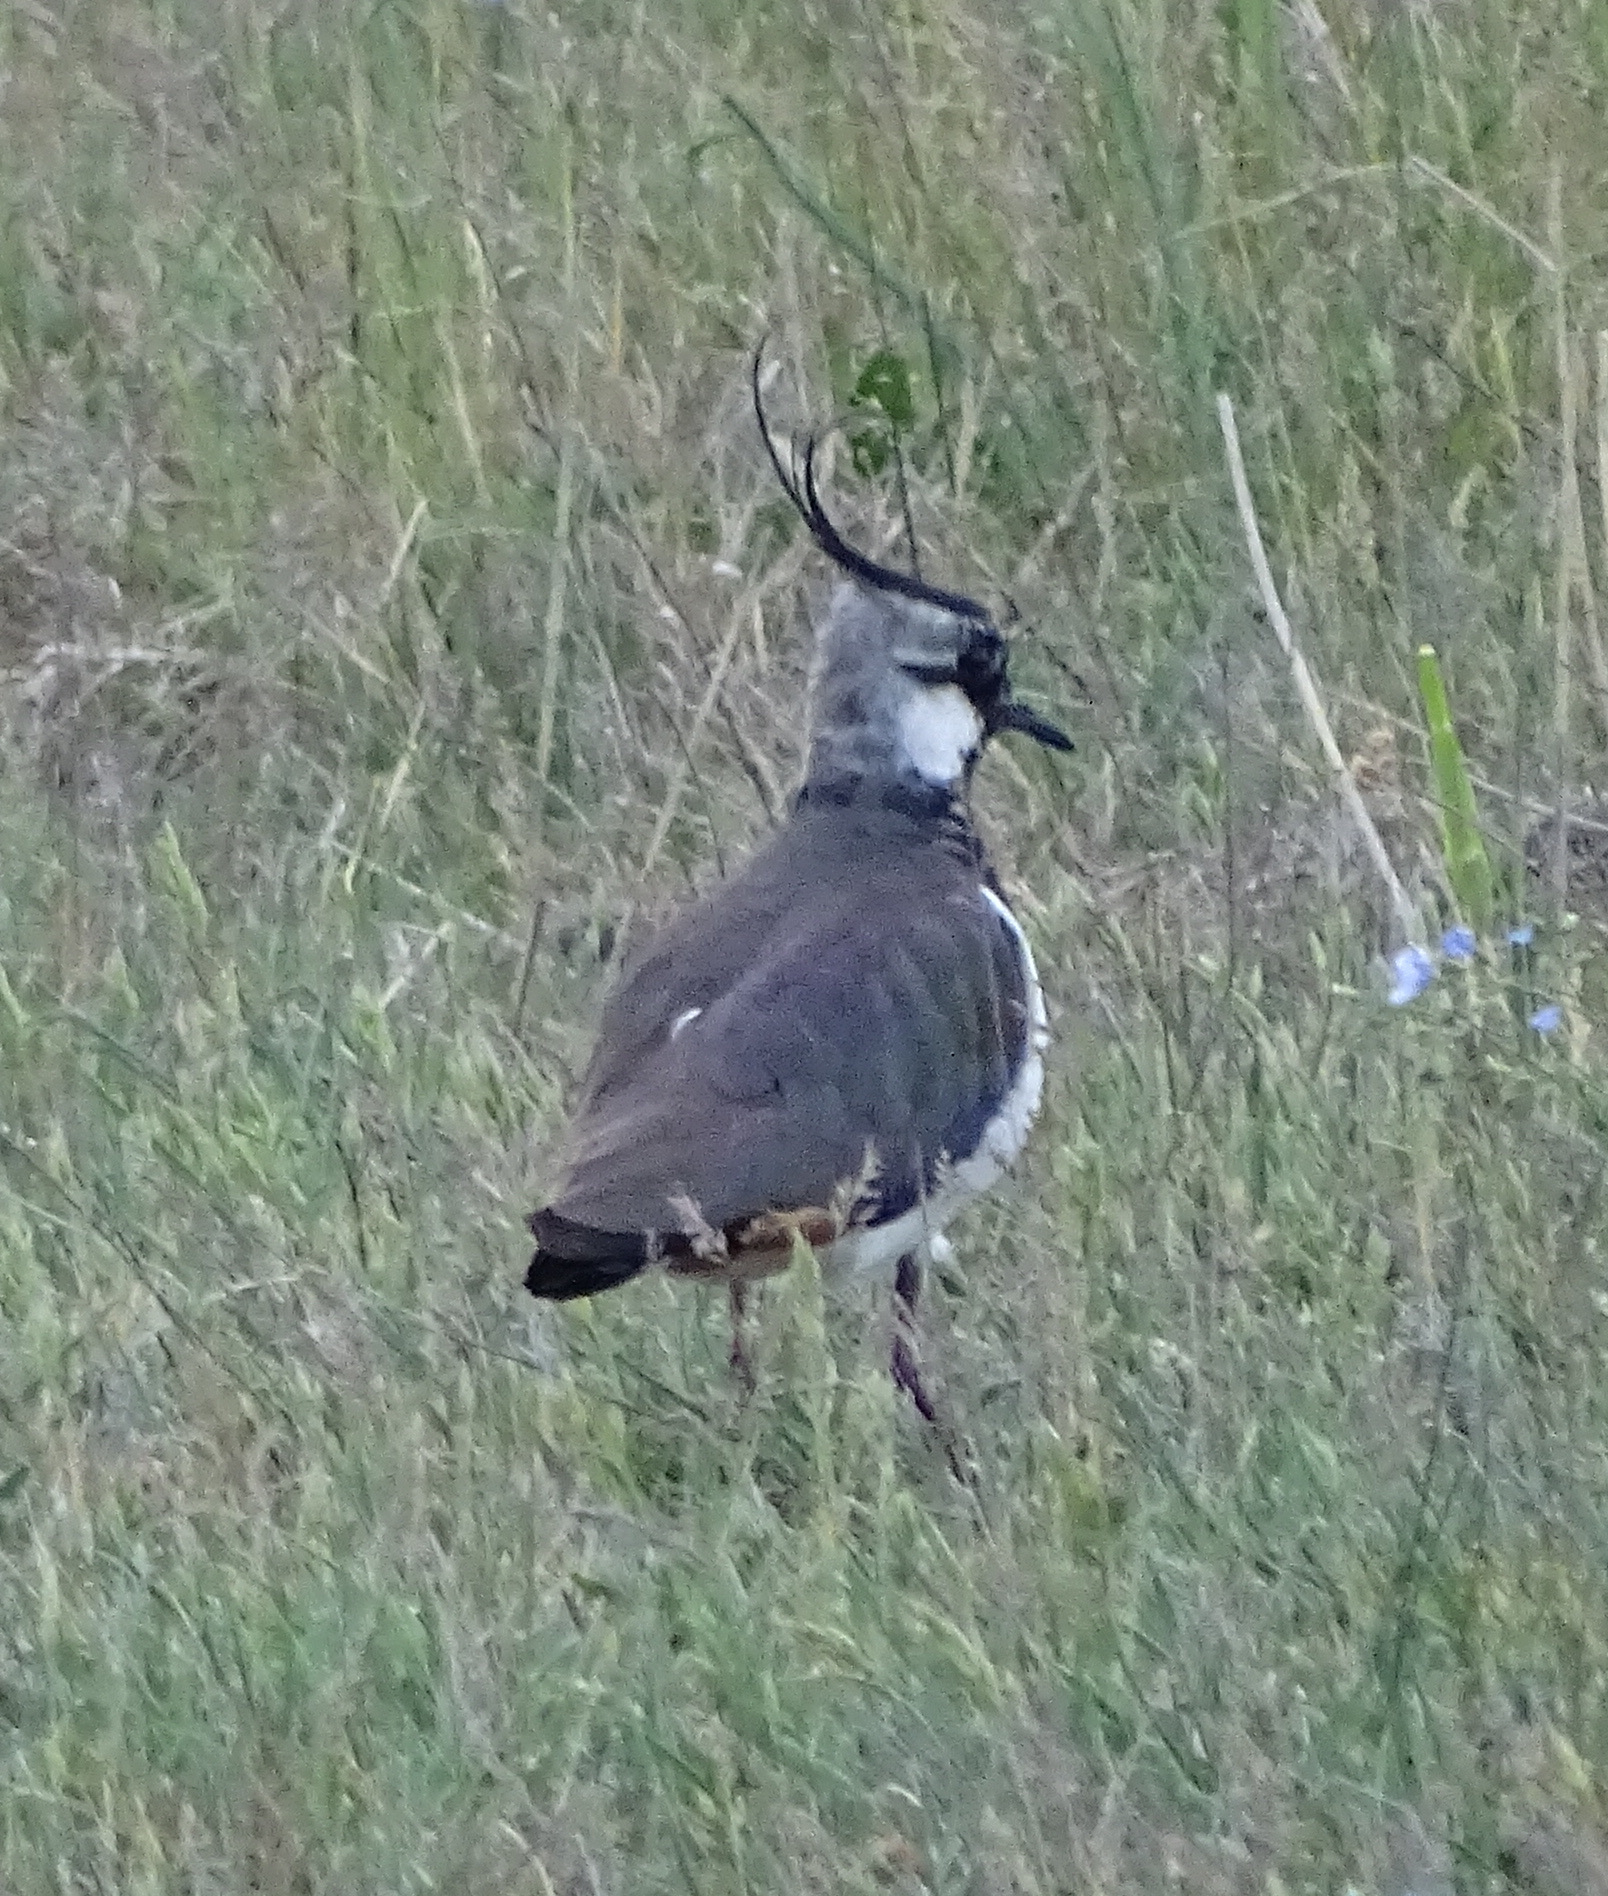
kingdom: Animalia
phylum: Chordata
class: Aves
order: Charadriiformes
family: Charadriidae
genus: Vanellus
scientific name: Vanellus vanellus
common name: Northern lapwing
